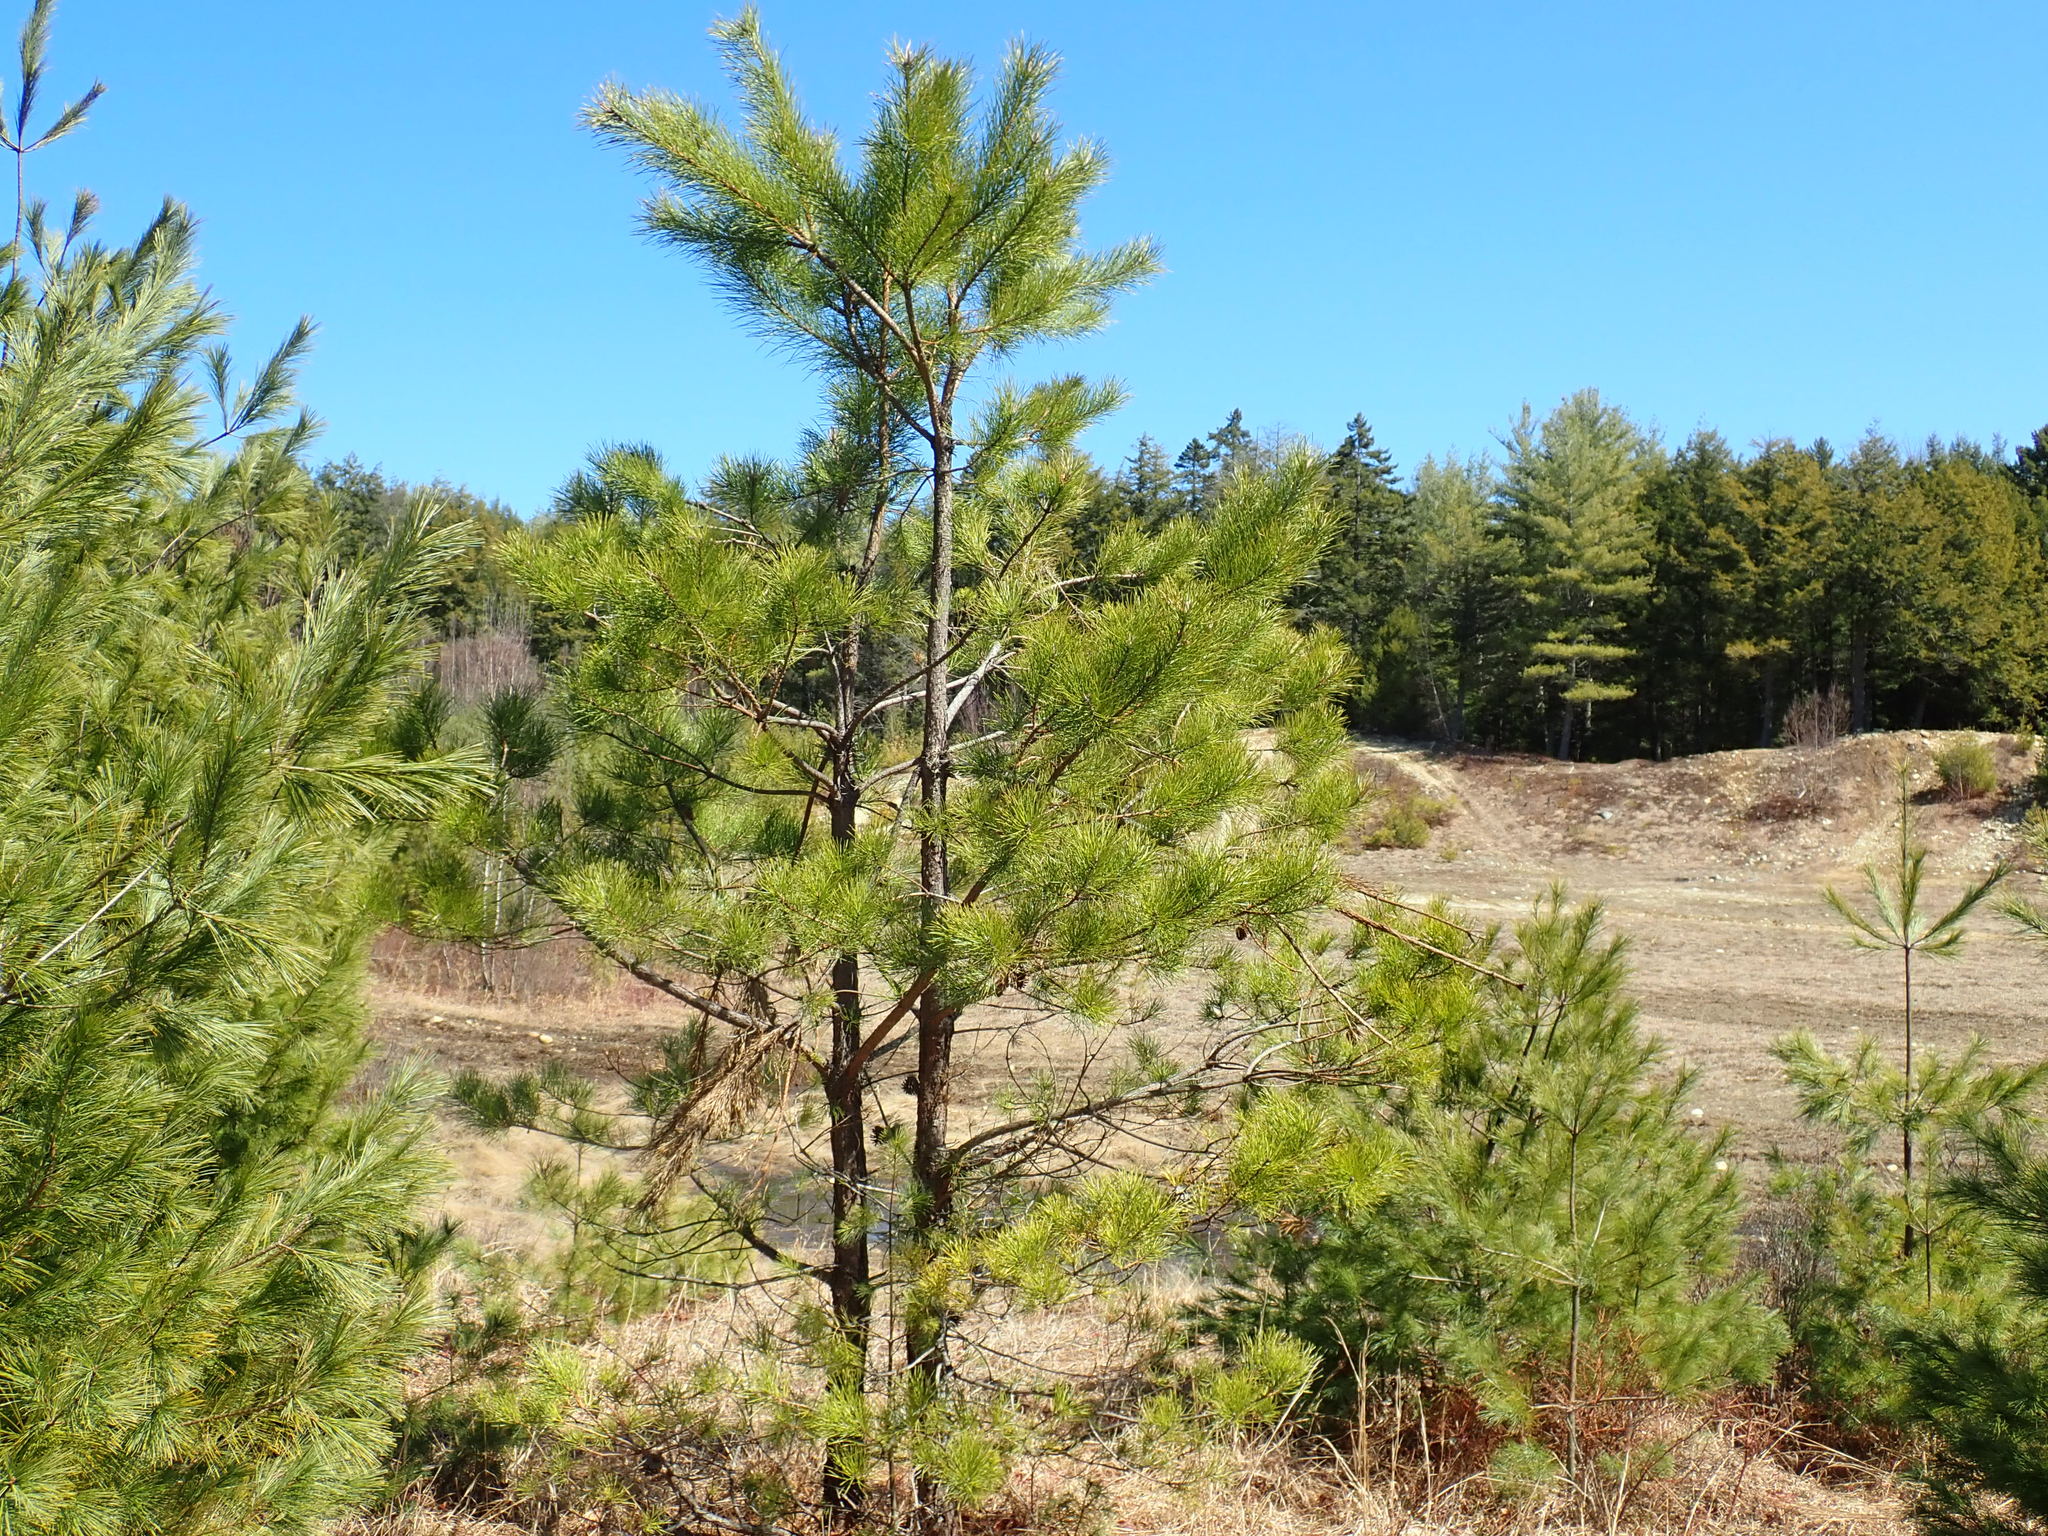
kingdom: Plantae
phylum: Tracheophyta
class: Pinopsida
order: Pinales
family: Pinaceae
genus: Pinus
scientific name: Pinus rigida
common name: Pitch pine
